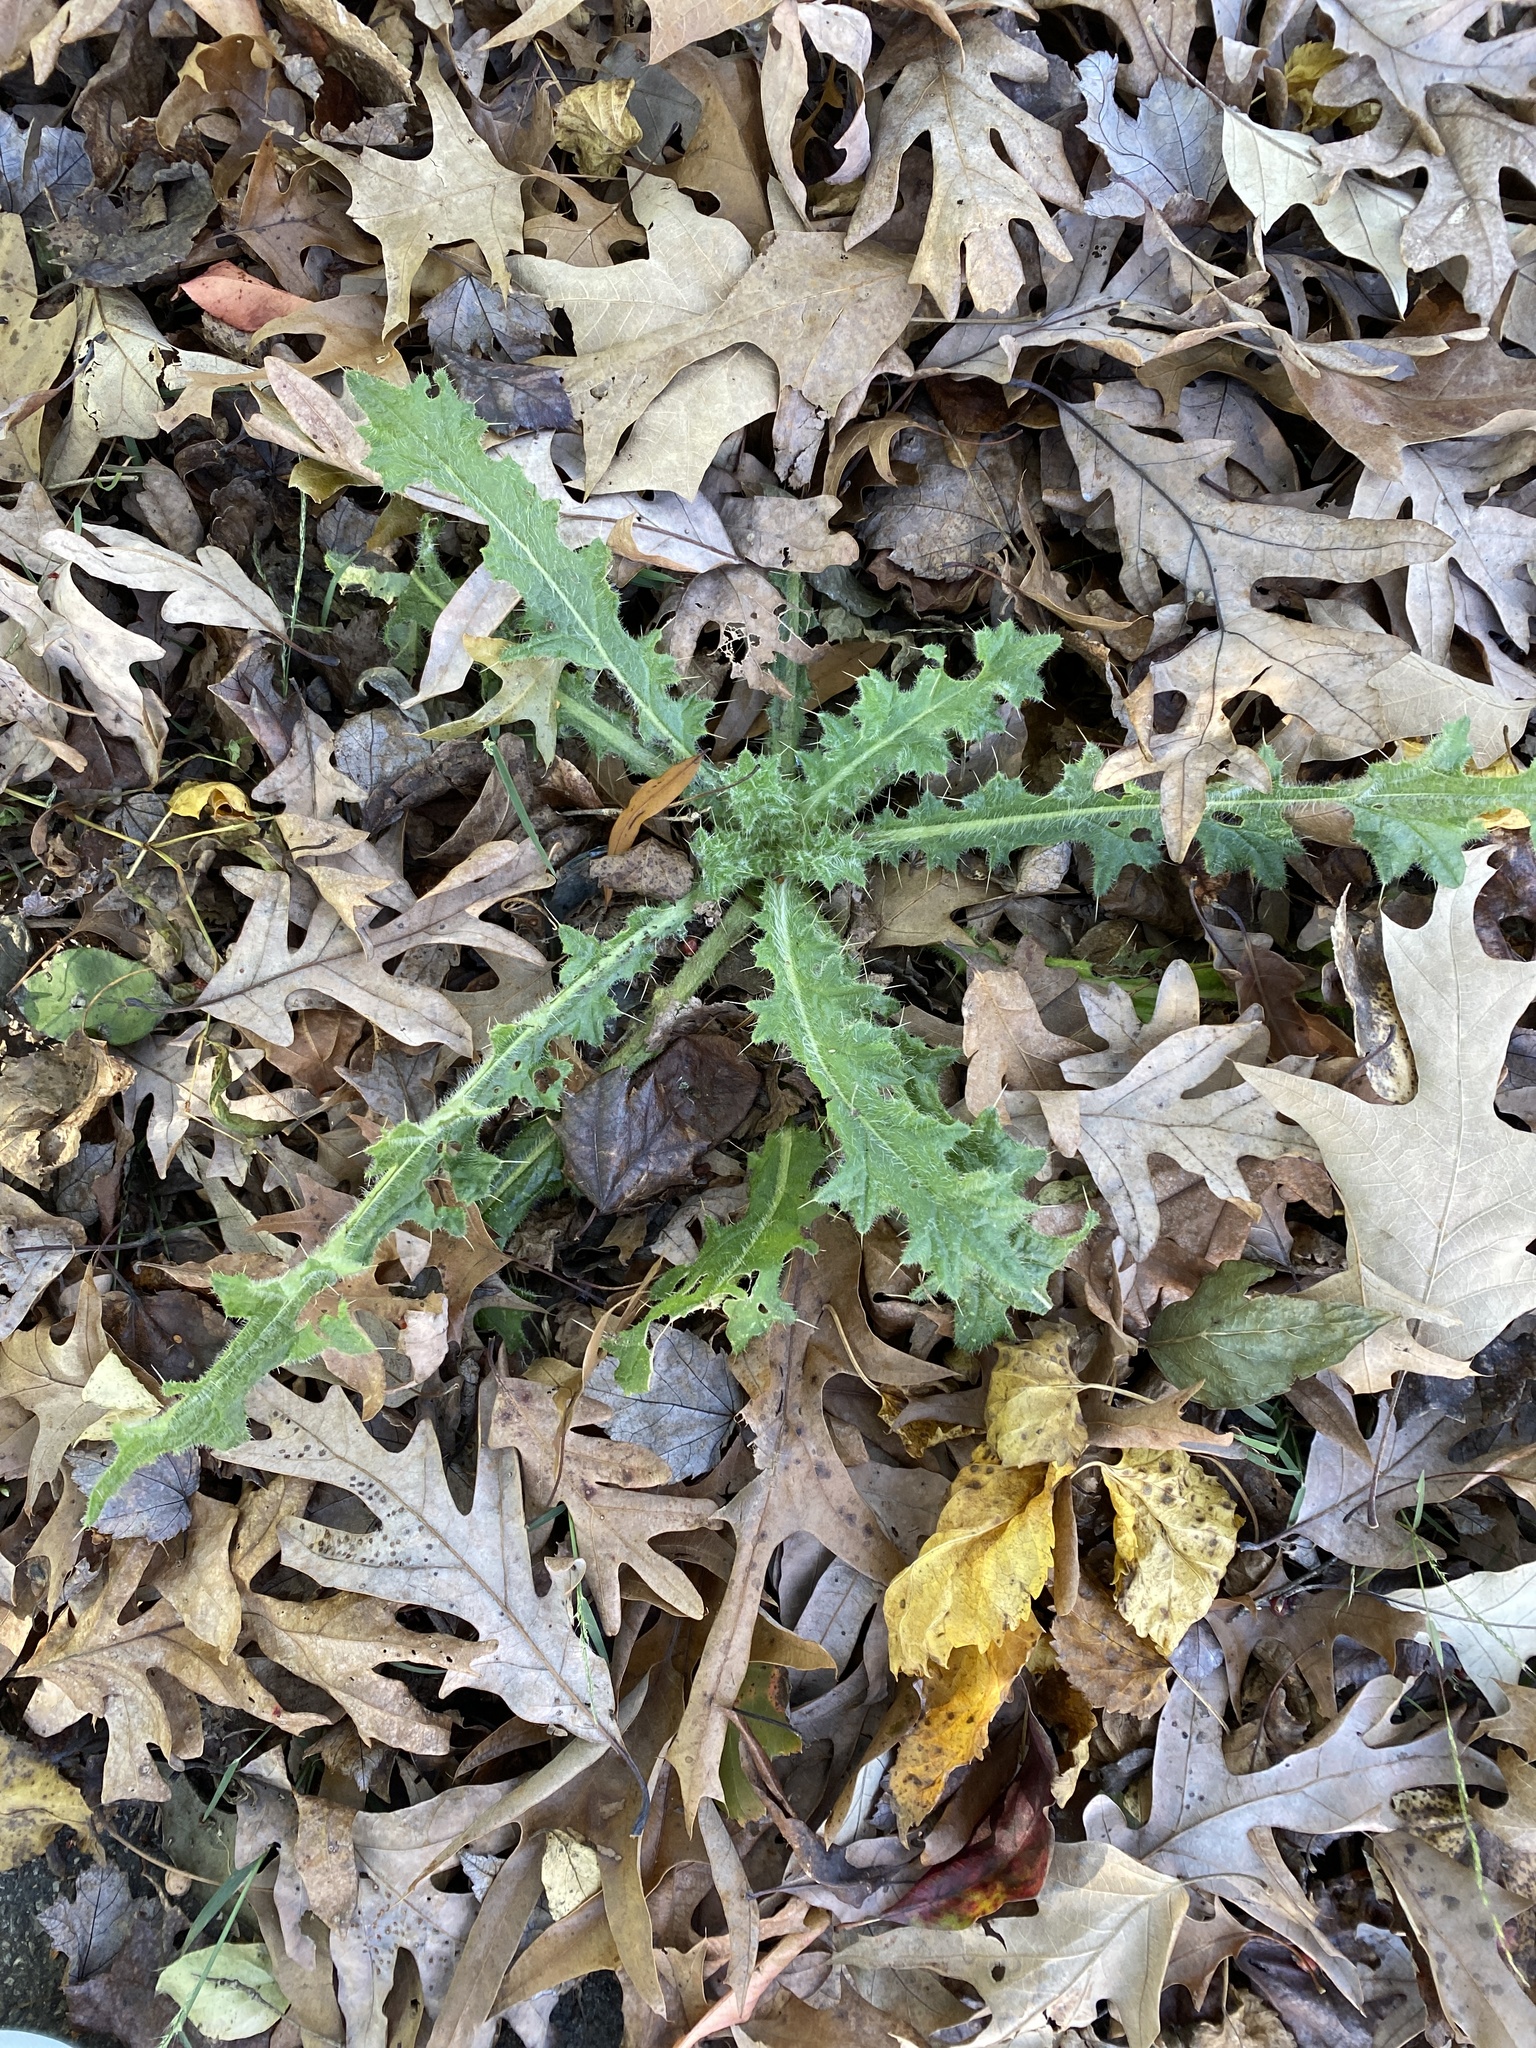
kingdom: Plantae
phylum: Tracheophyta
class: Magnoliopsida
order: Asterales
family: Asteraceae
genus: Cirsium
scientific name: Cirsium vulgare
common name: Bull thistle
